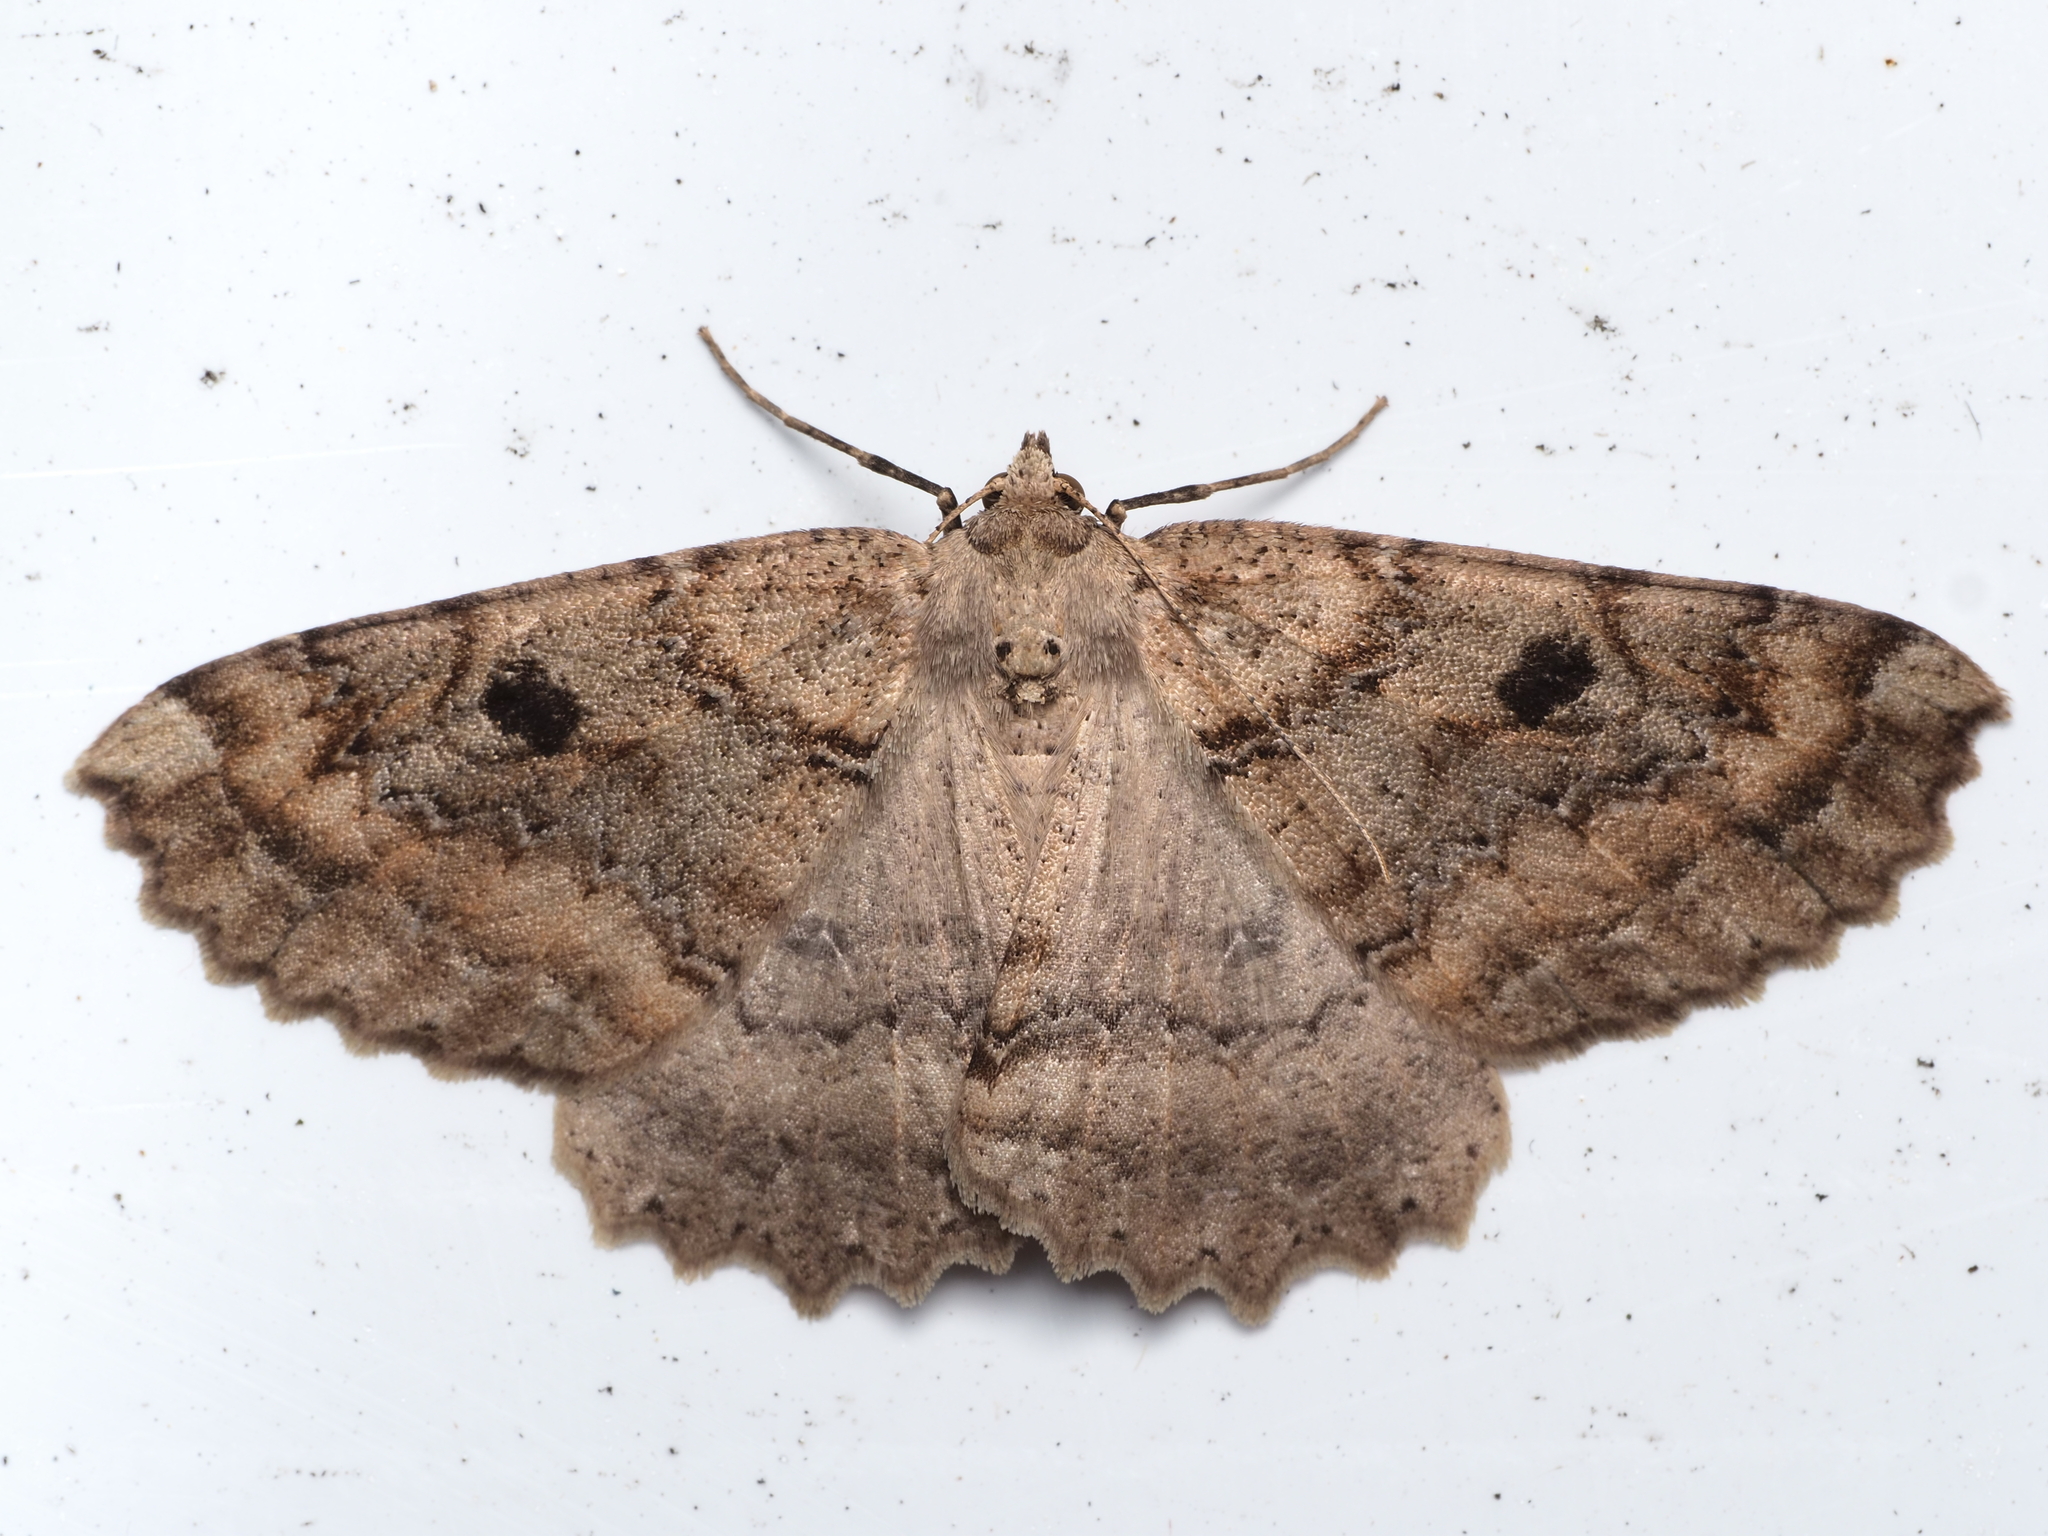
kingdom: Animalia
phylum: Arthropoda
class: Insecta
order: Lepidoptera
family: Geometridae
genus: Cleora
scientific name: Cleora scriptaria
